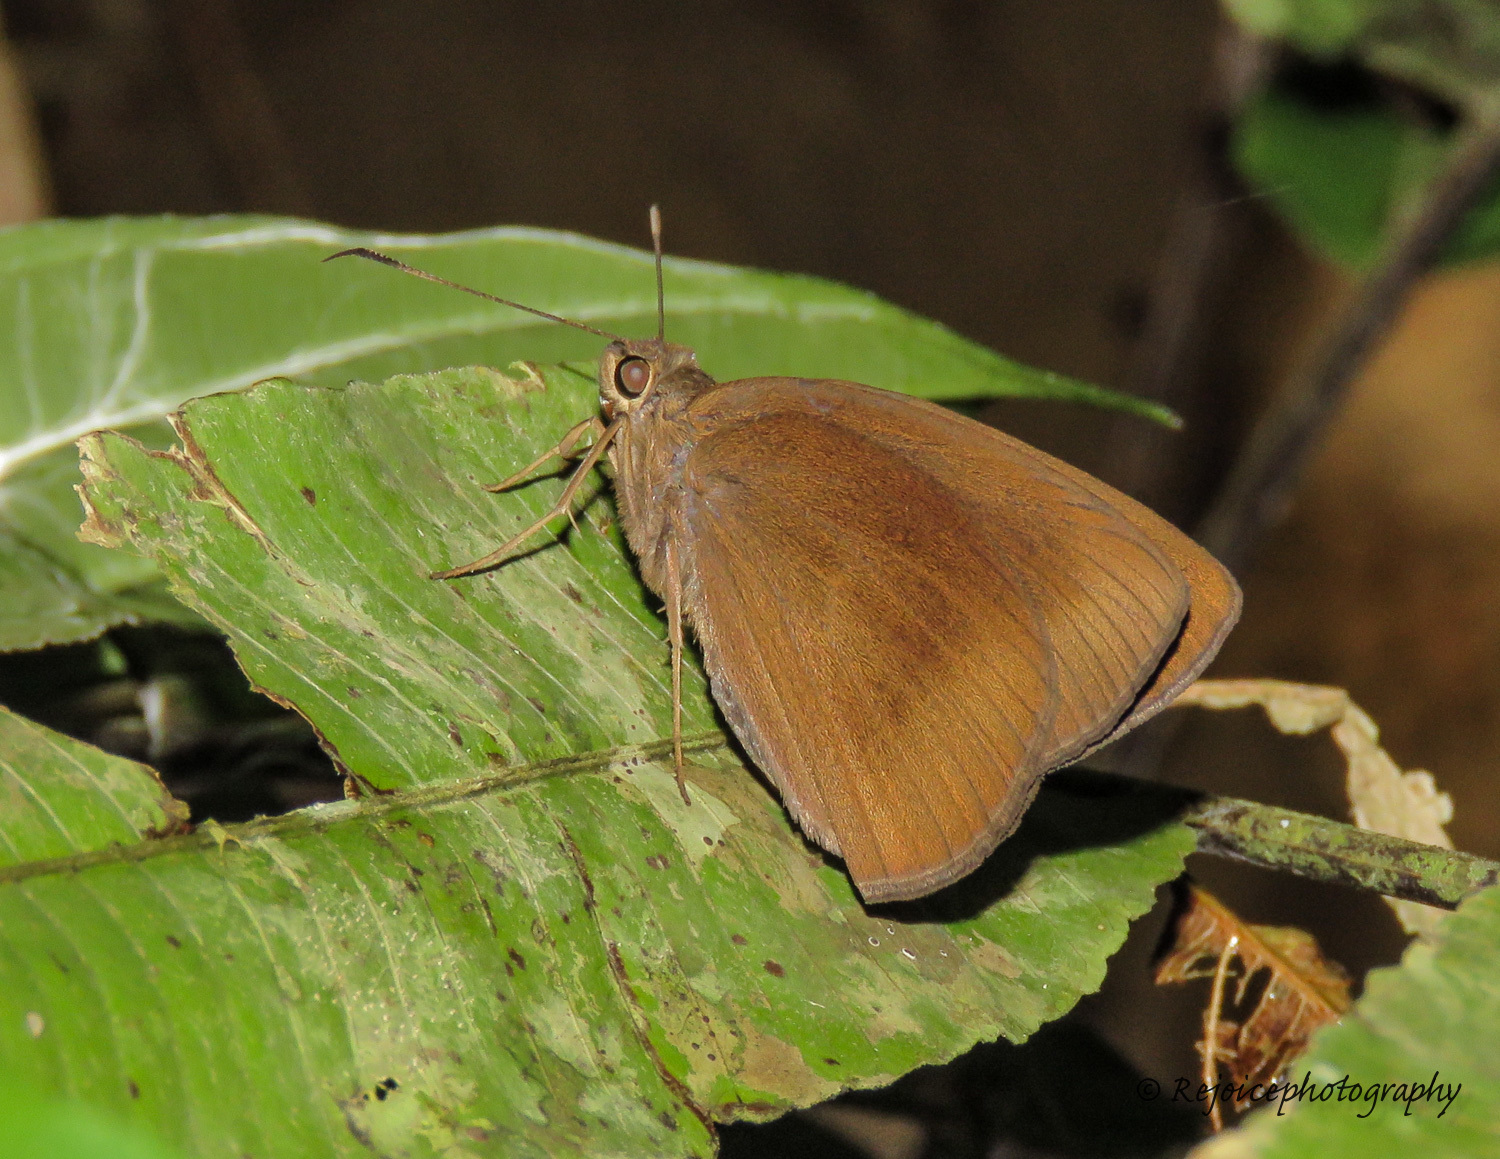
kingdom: Animalia
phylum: Arthropoda
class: Insecta
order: Lepidoptera
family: Hesperiidae
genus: Ancistroides
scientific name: Ancistroides nigrita
